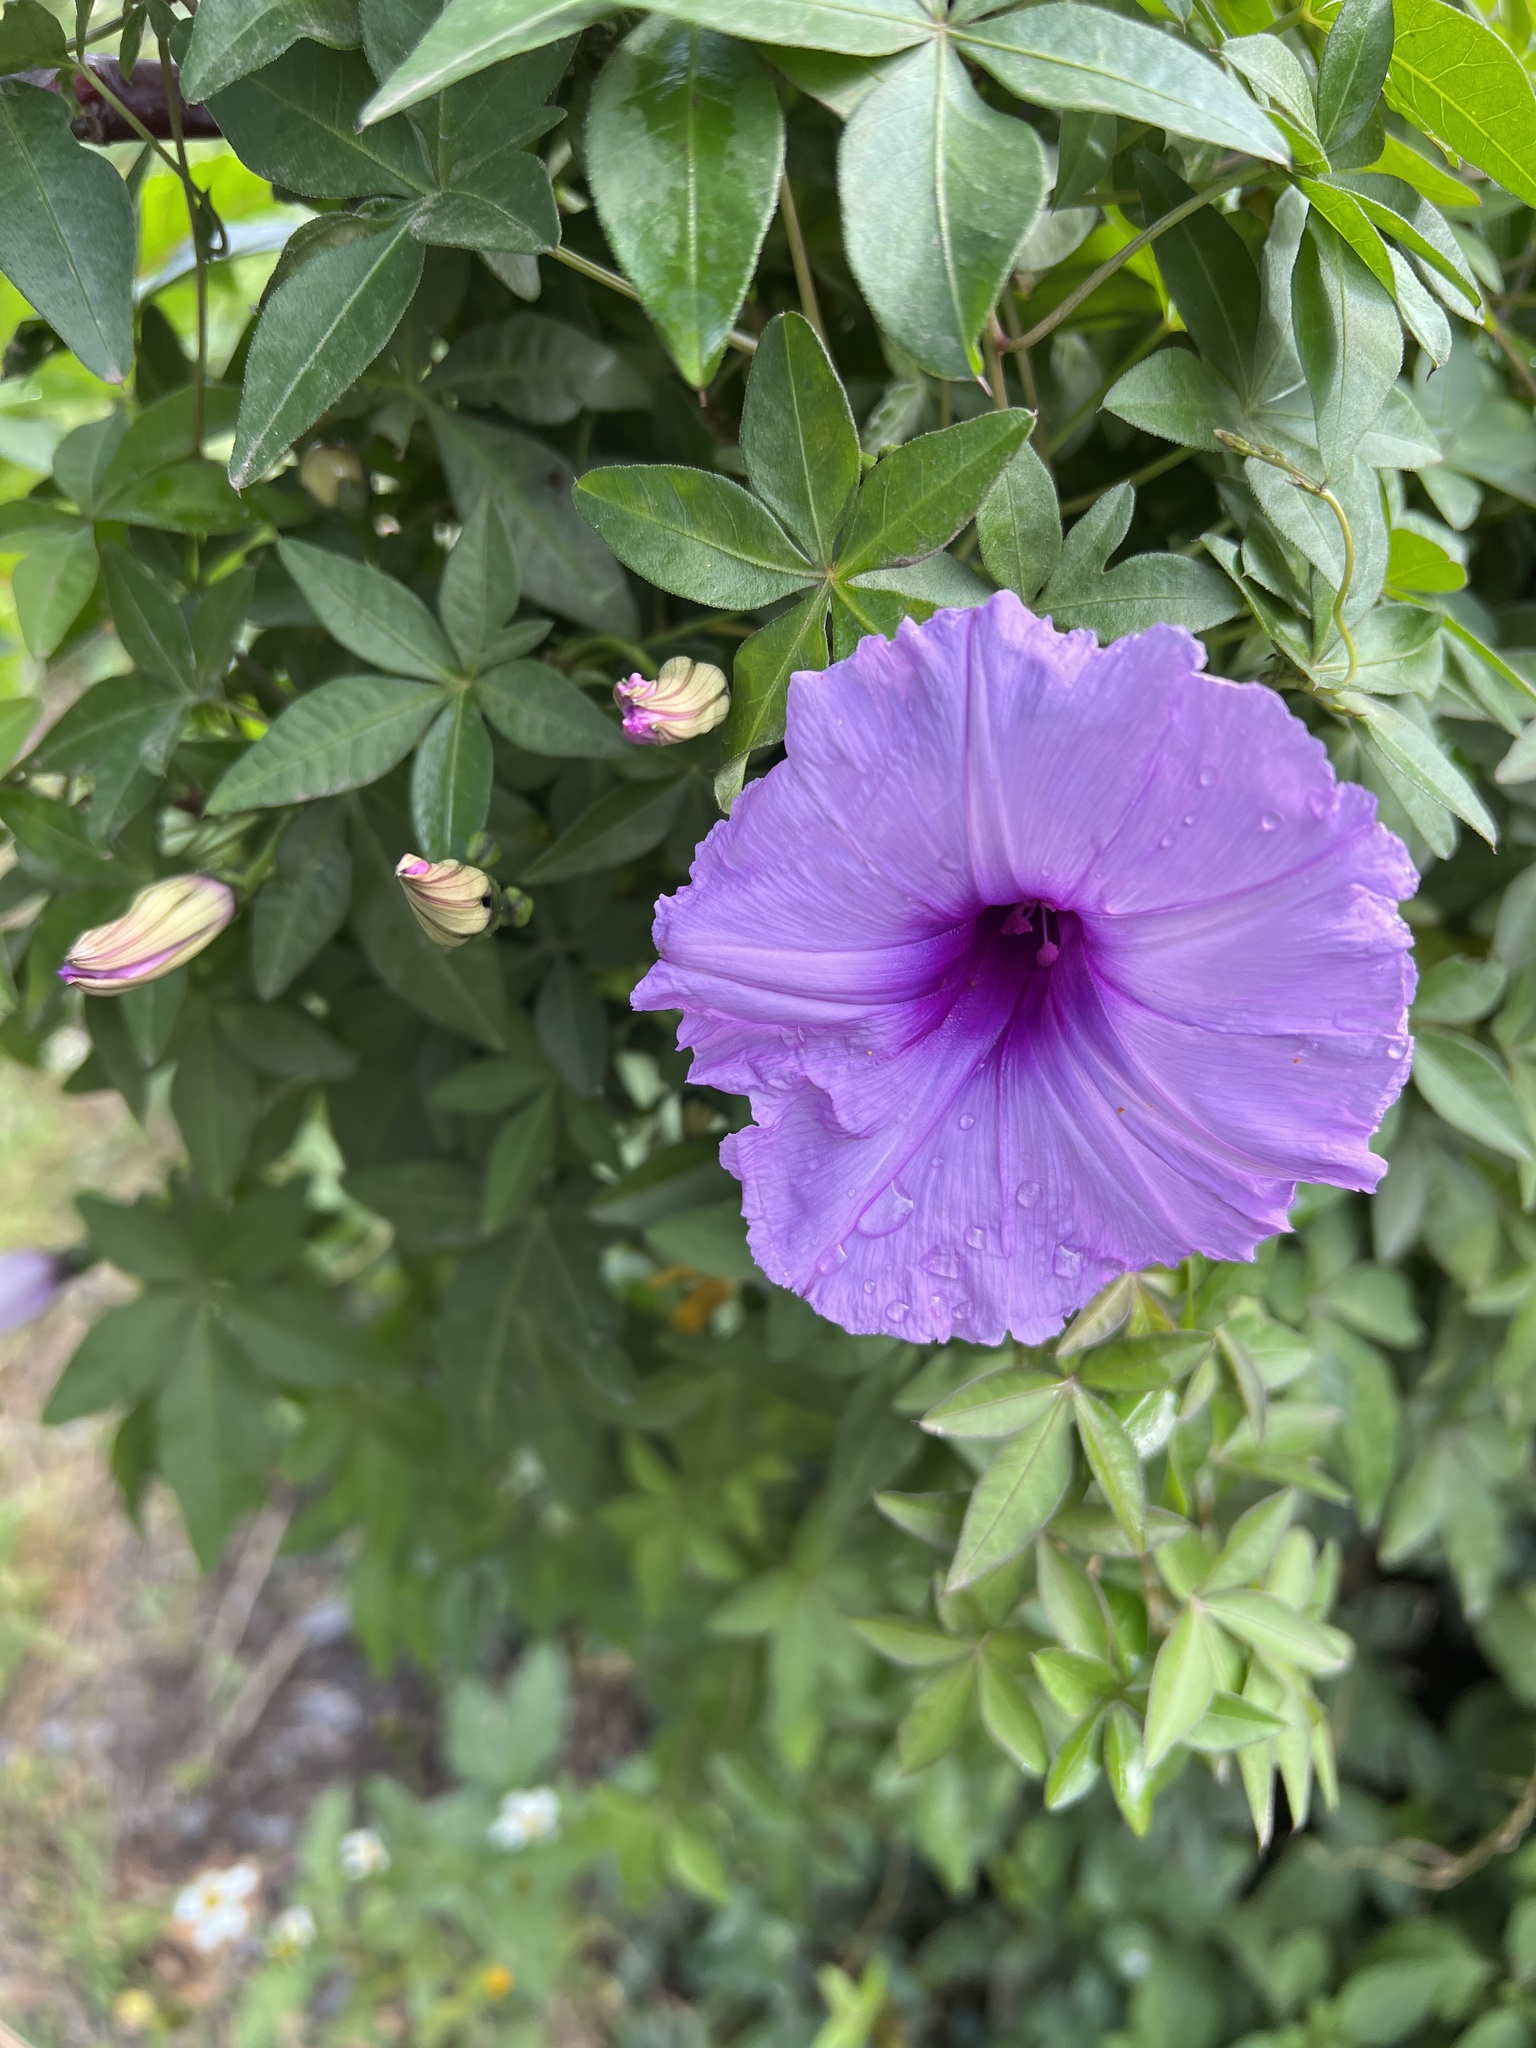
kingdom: Plantae
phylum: Tracheophyta
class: Magnoliopsida
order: Solanales
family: Convolvulaceae
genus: Ipomoea
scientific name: Ipomoea cairica
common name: Mile a minute vine
